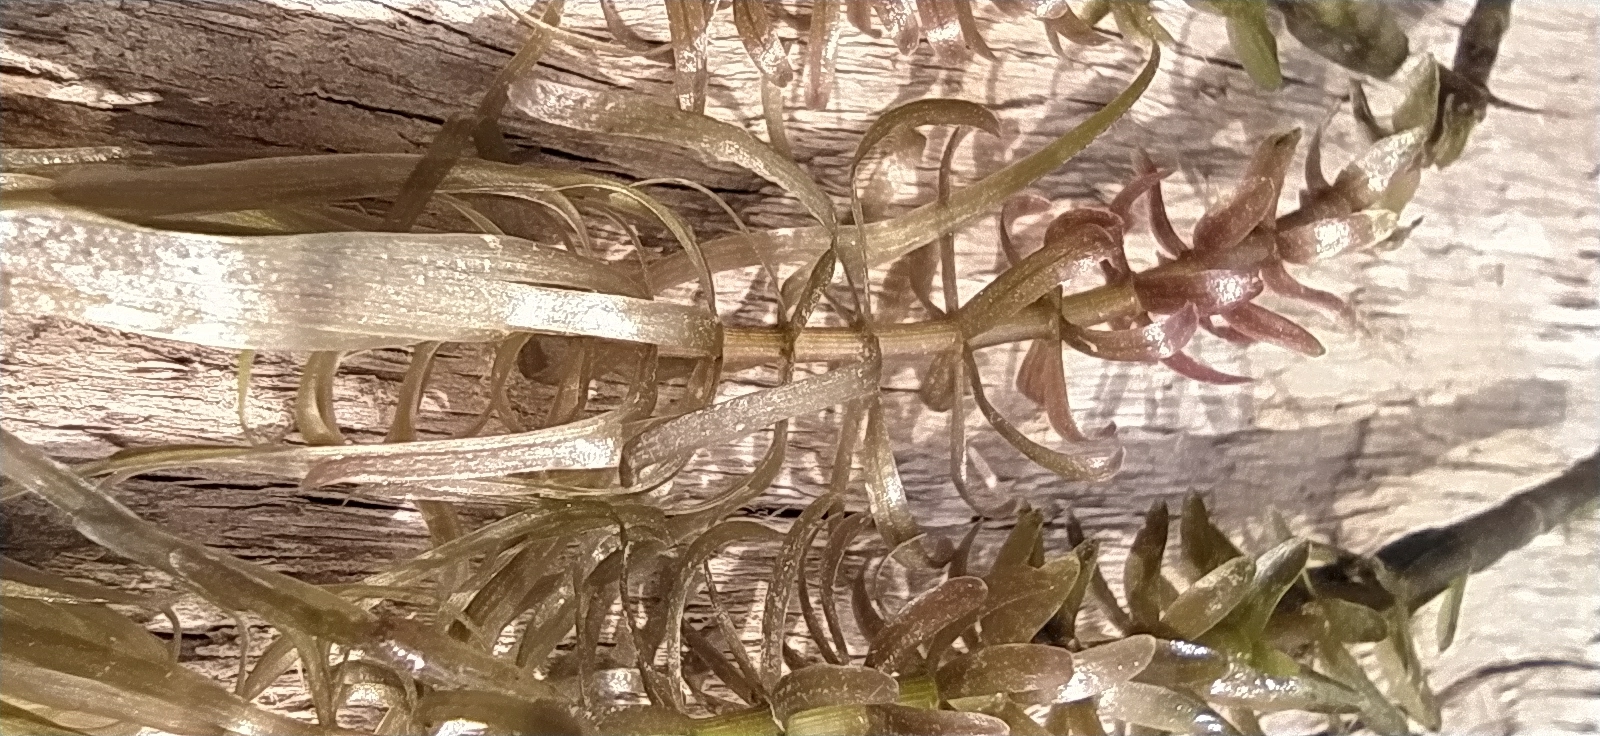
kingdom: Plantae
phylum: Tracheophyta
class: Magnoliopsida
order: Lamiales
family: Plantaginaceae
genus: Hippuris
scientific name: Hippuris vulgaris
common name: Mare's-tail
